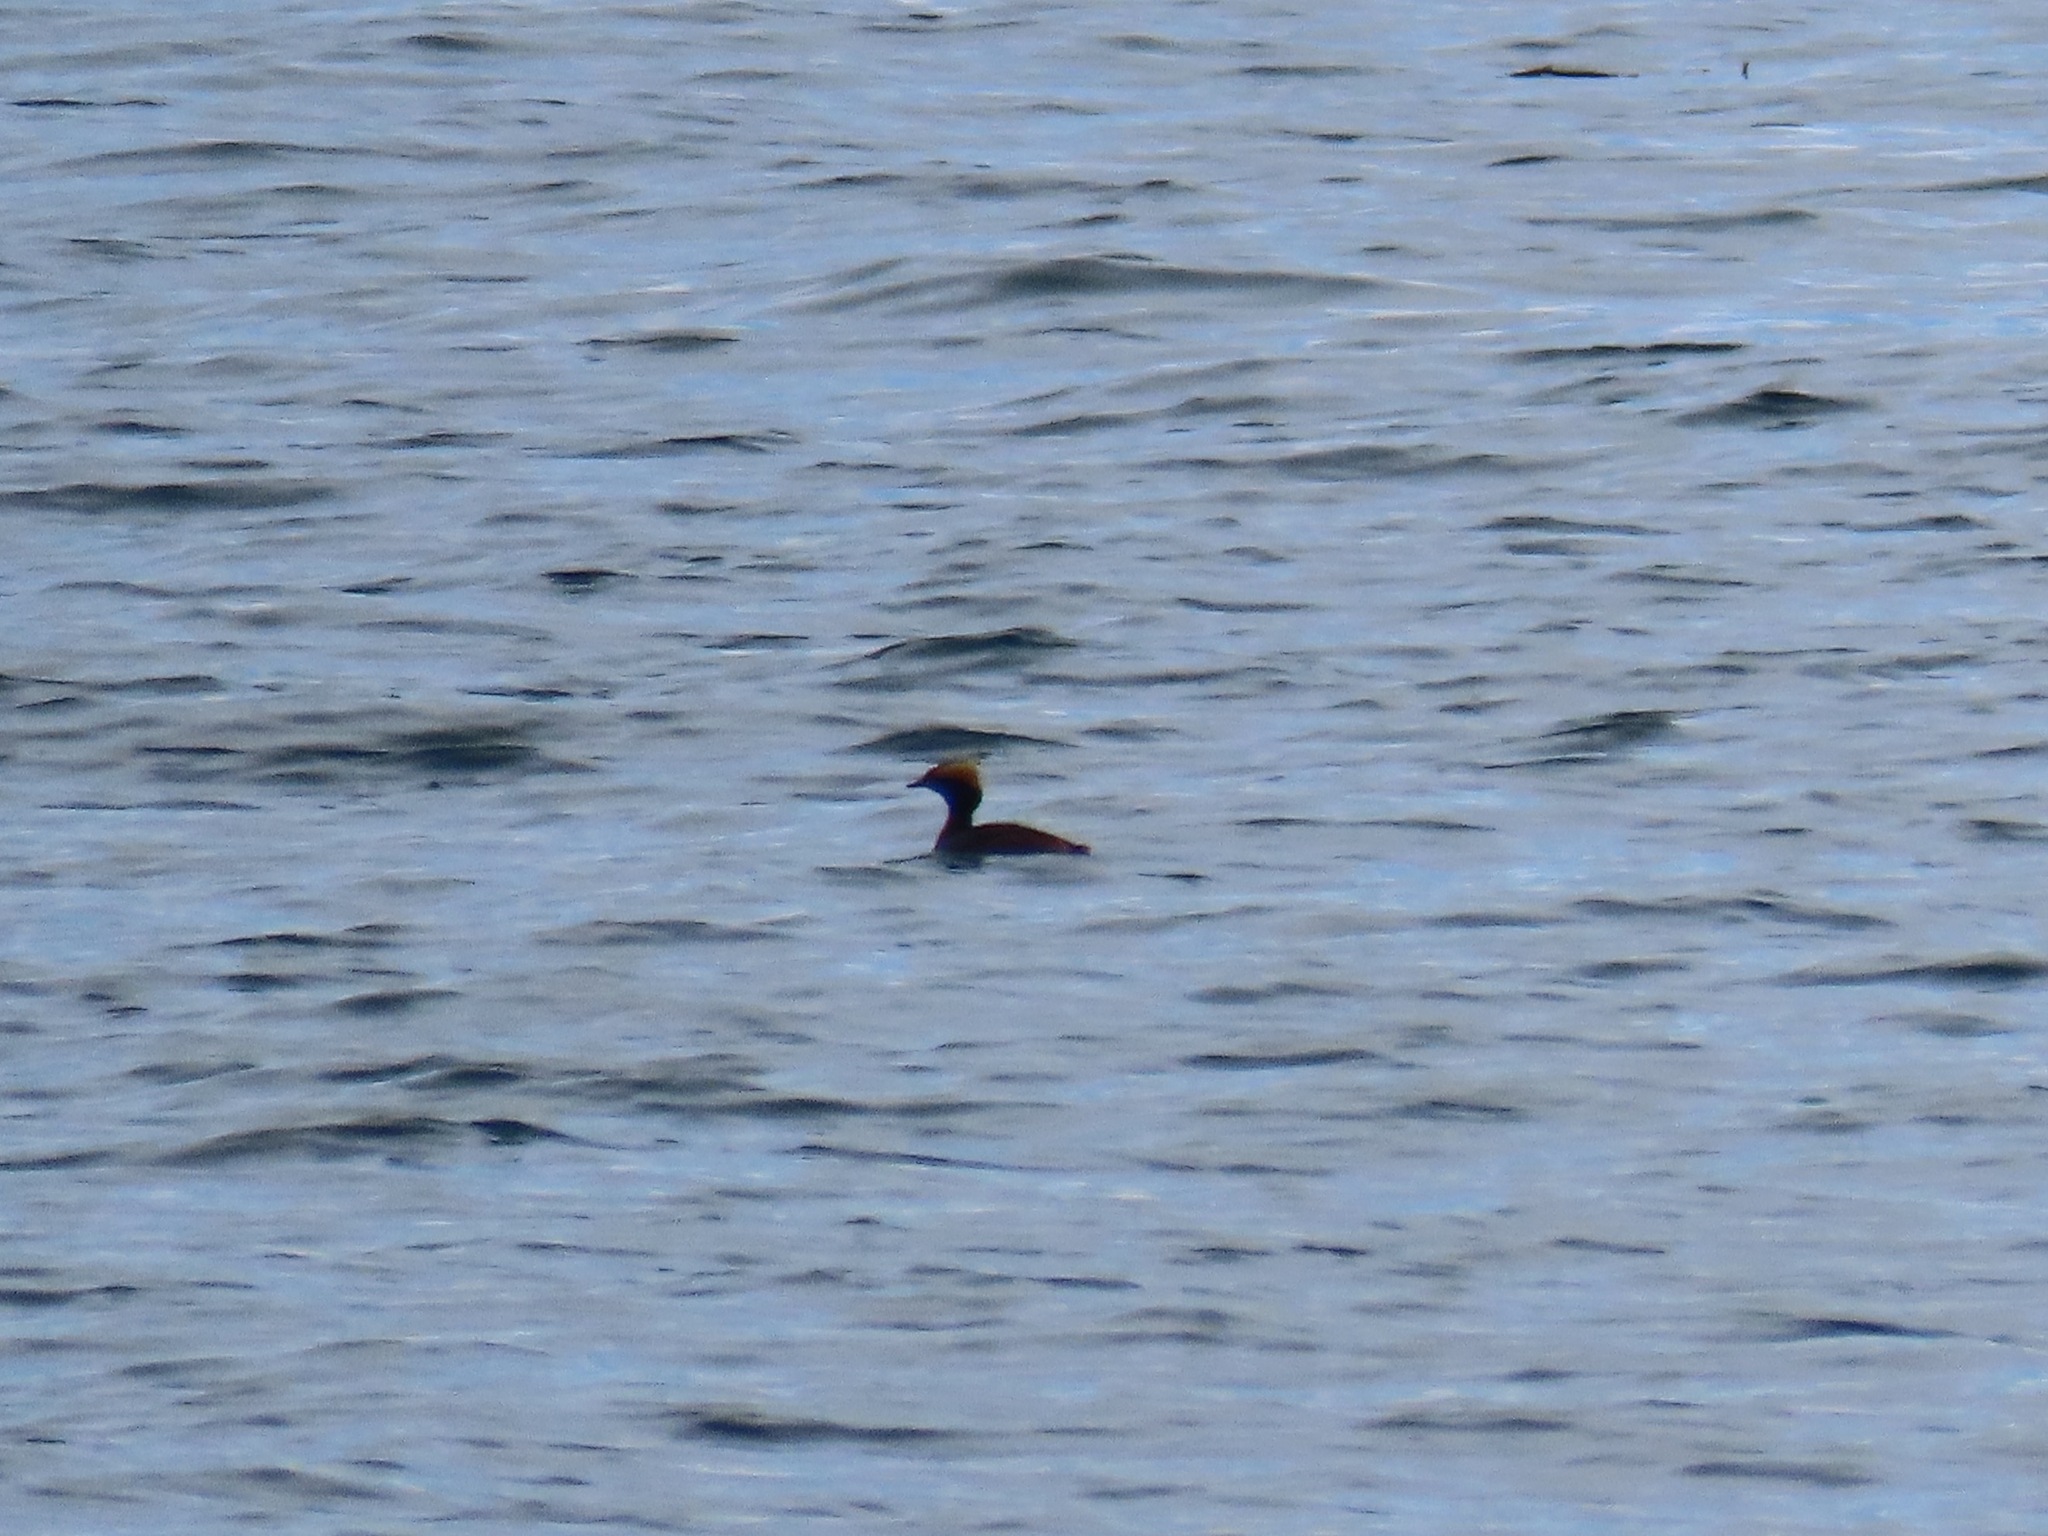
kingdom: Animalia
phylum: Chordata
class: Aves
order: Podicipediformes
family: Podicipedidae
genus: Podiceps
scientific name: Podiceps auritus
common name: Horned grebe
